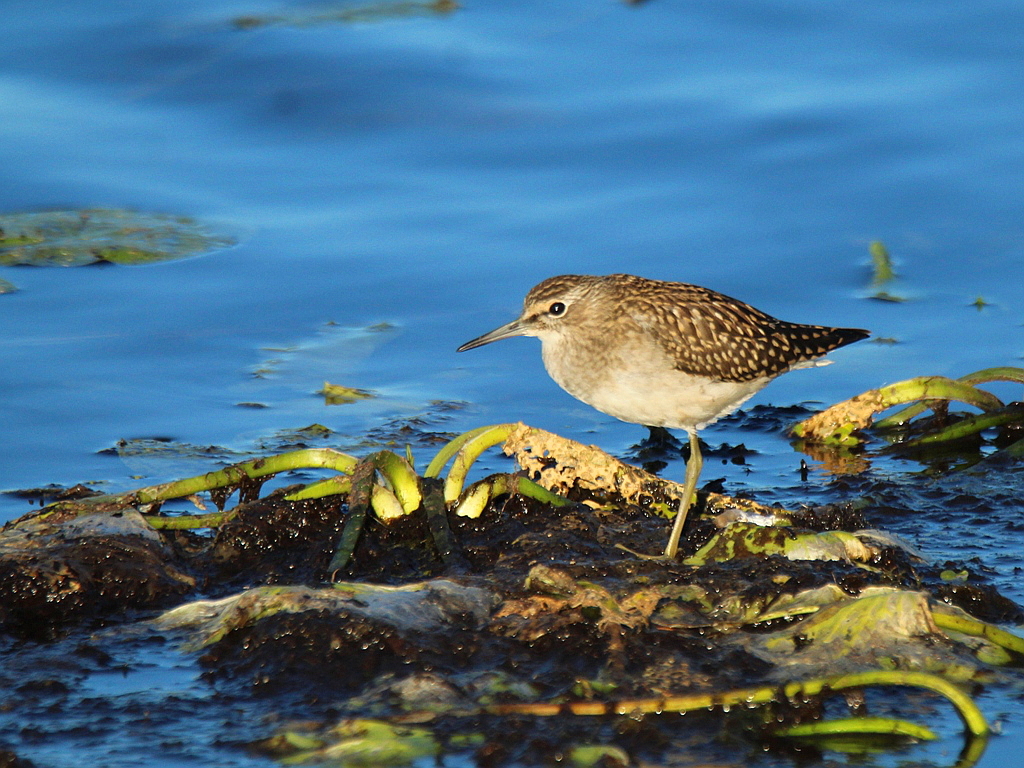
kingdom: Animalia
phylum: Chordata
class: Aves
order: Charadriiformes
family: Scolopacidae
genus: Tringa
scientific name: Tringa glareola
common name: Wood sandpiper
